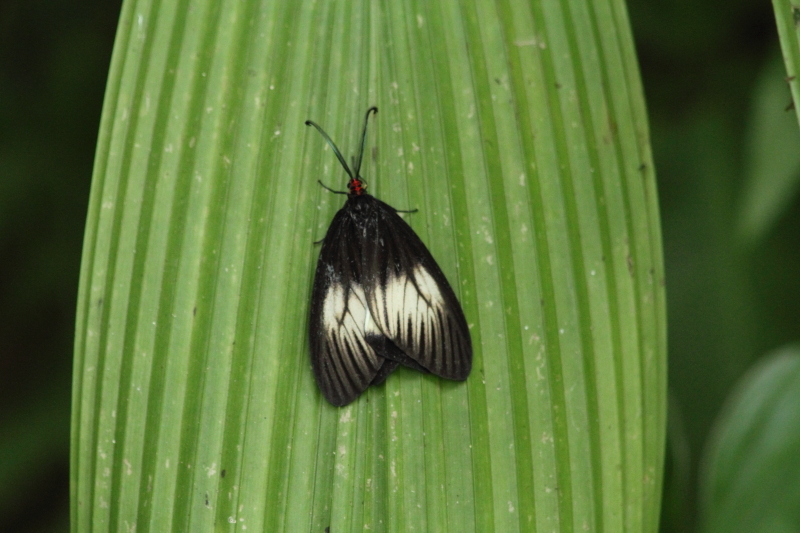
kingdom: Animalia
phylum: Arthropoda
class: Insecta
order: Lepidoptera
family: Zygaenidae
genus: Histia
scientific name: Histia libelluloides
